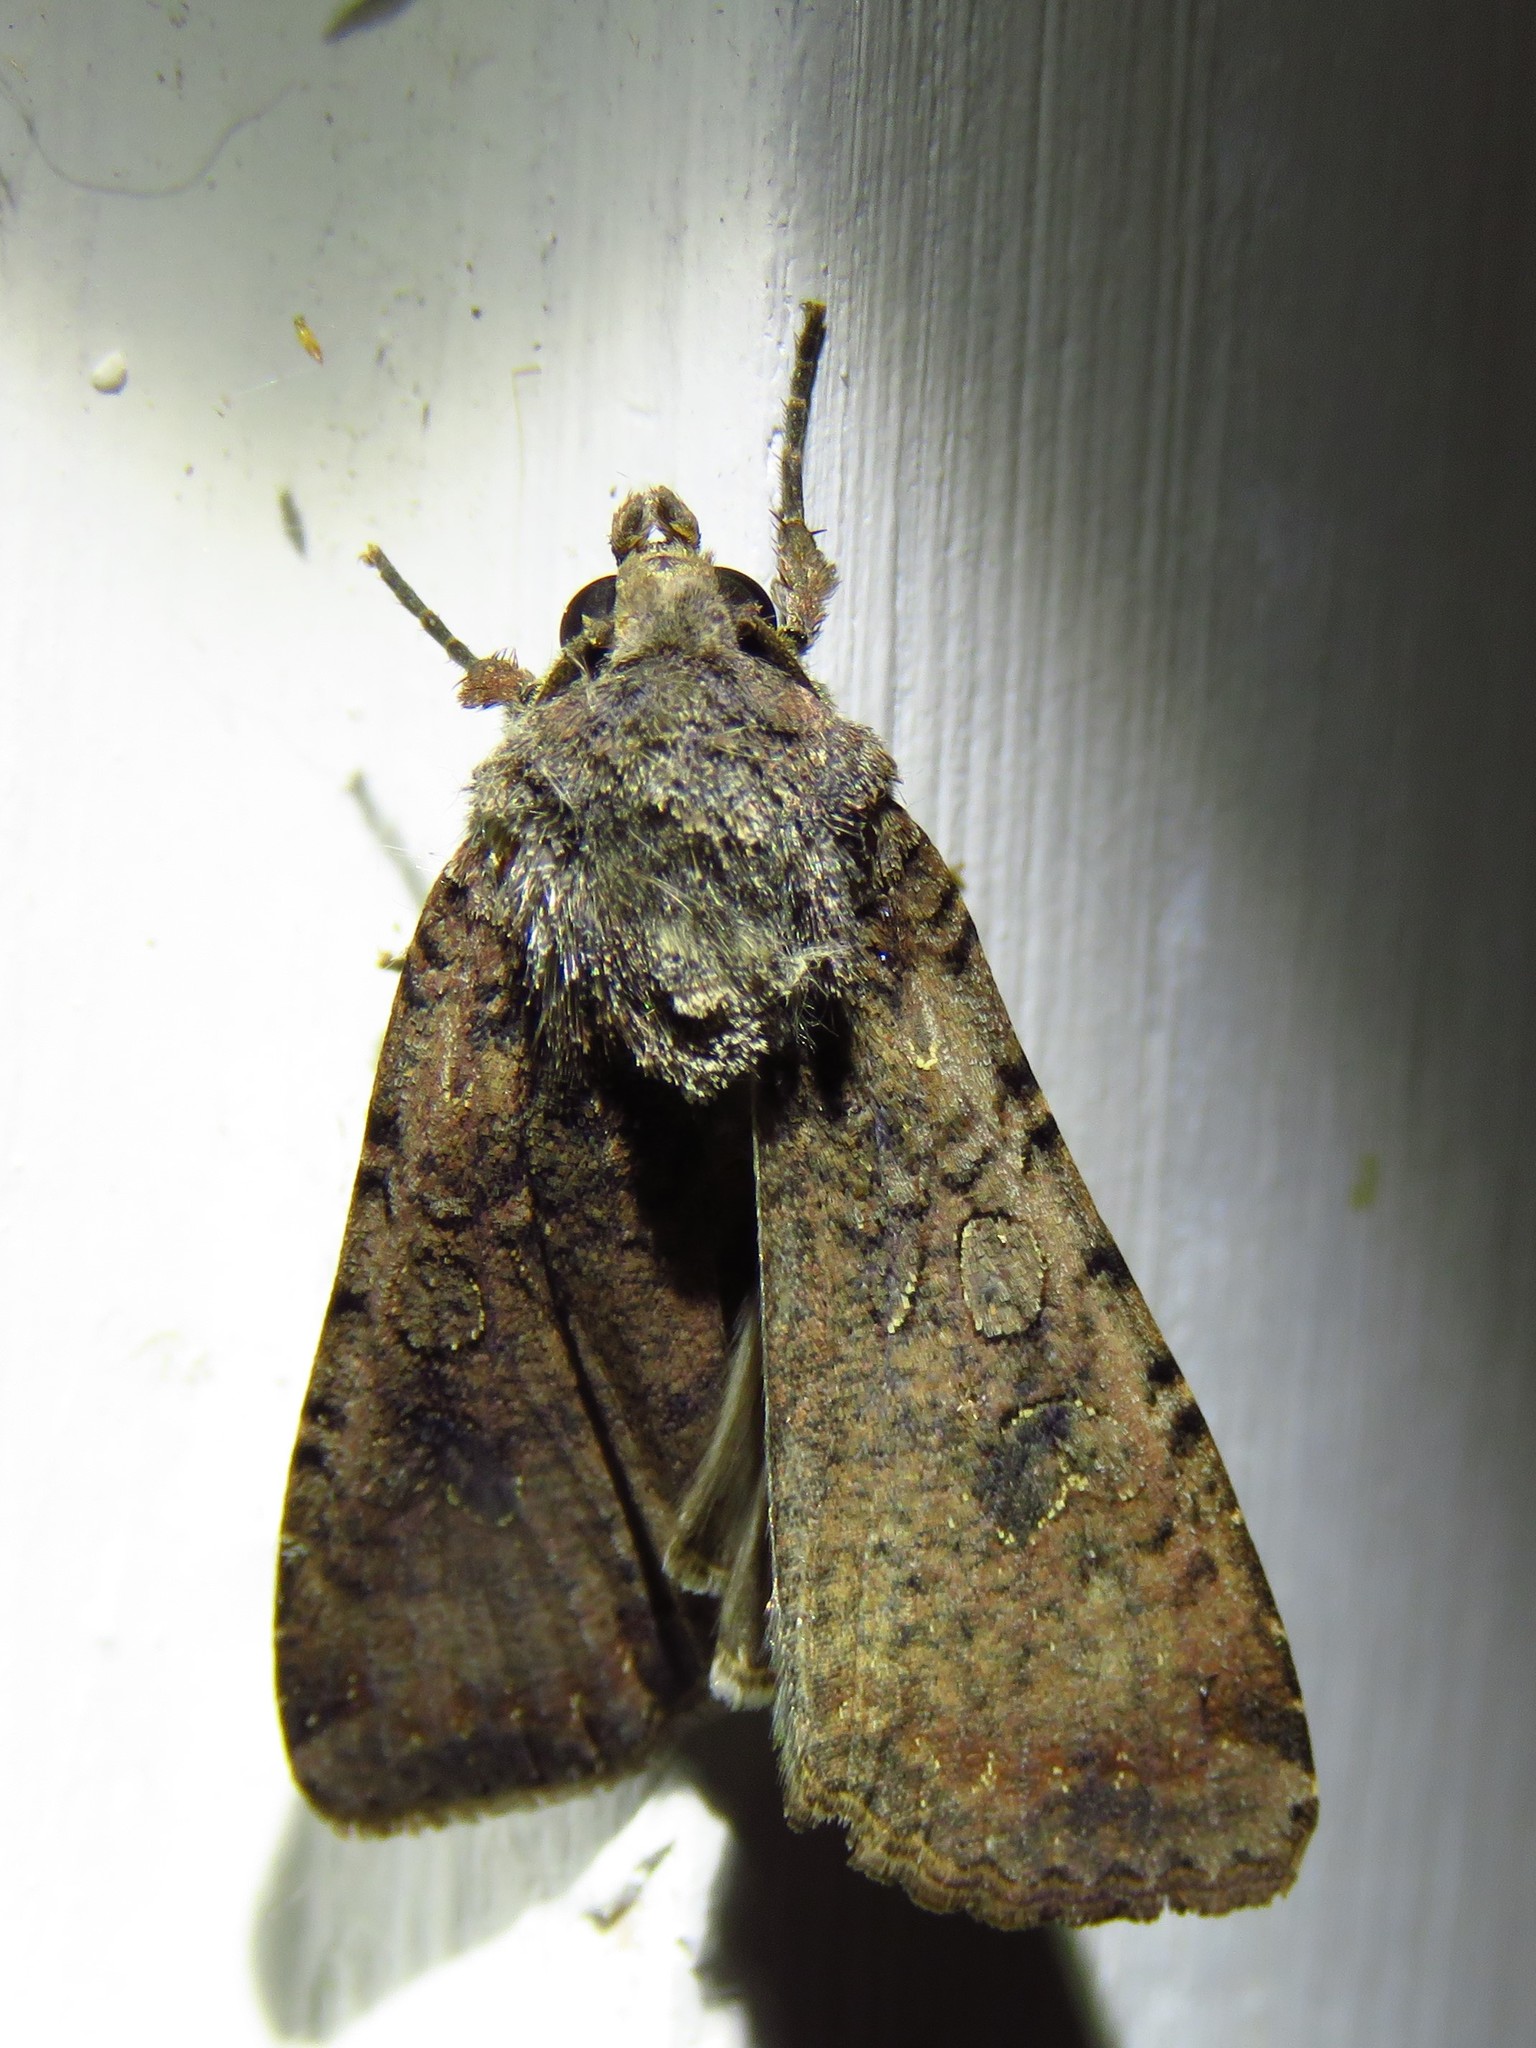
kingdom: Animalia
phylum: Arthropoda
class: Insecta
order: Lepidoptera
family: Noctuidae
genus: Peridroma
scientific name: Peridroma saucia
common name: Pearly underwing
